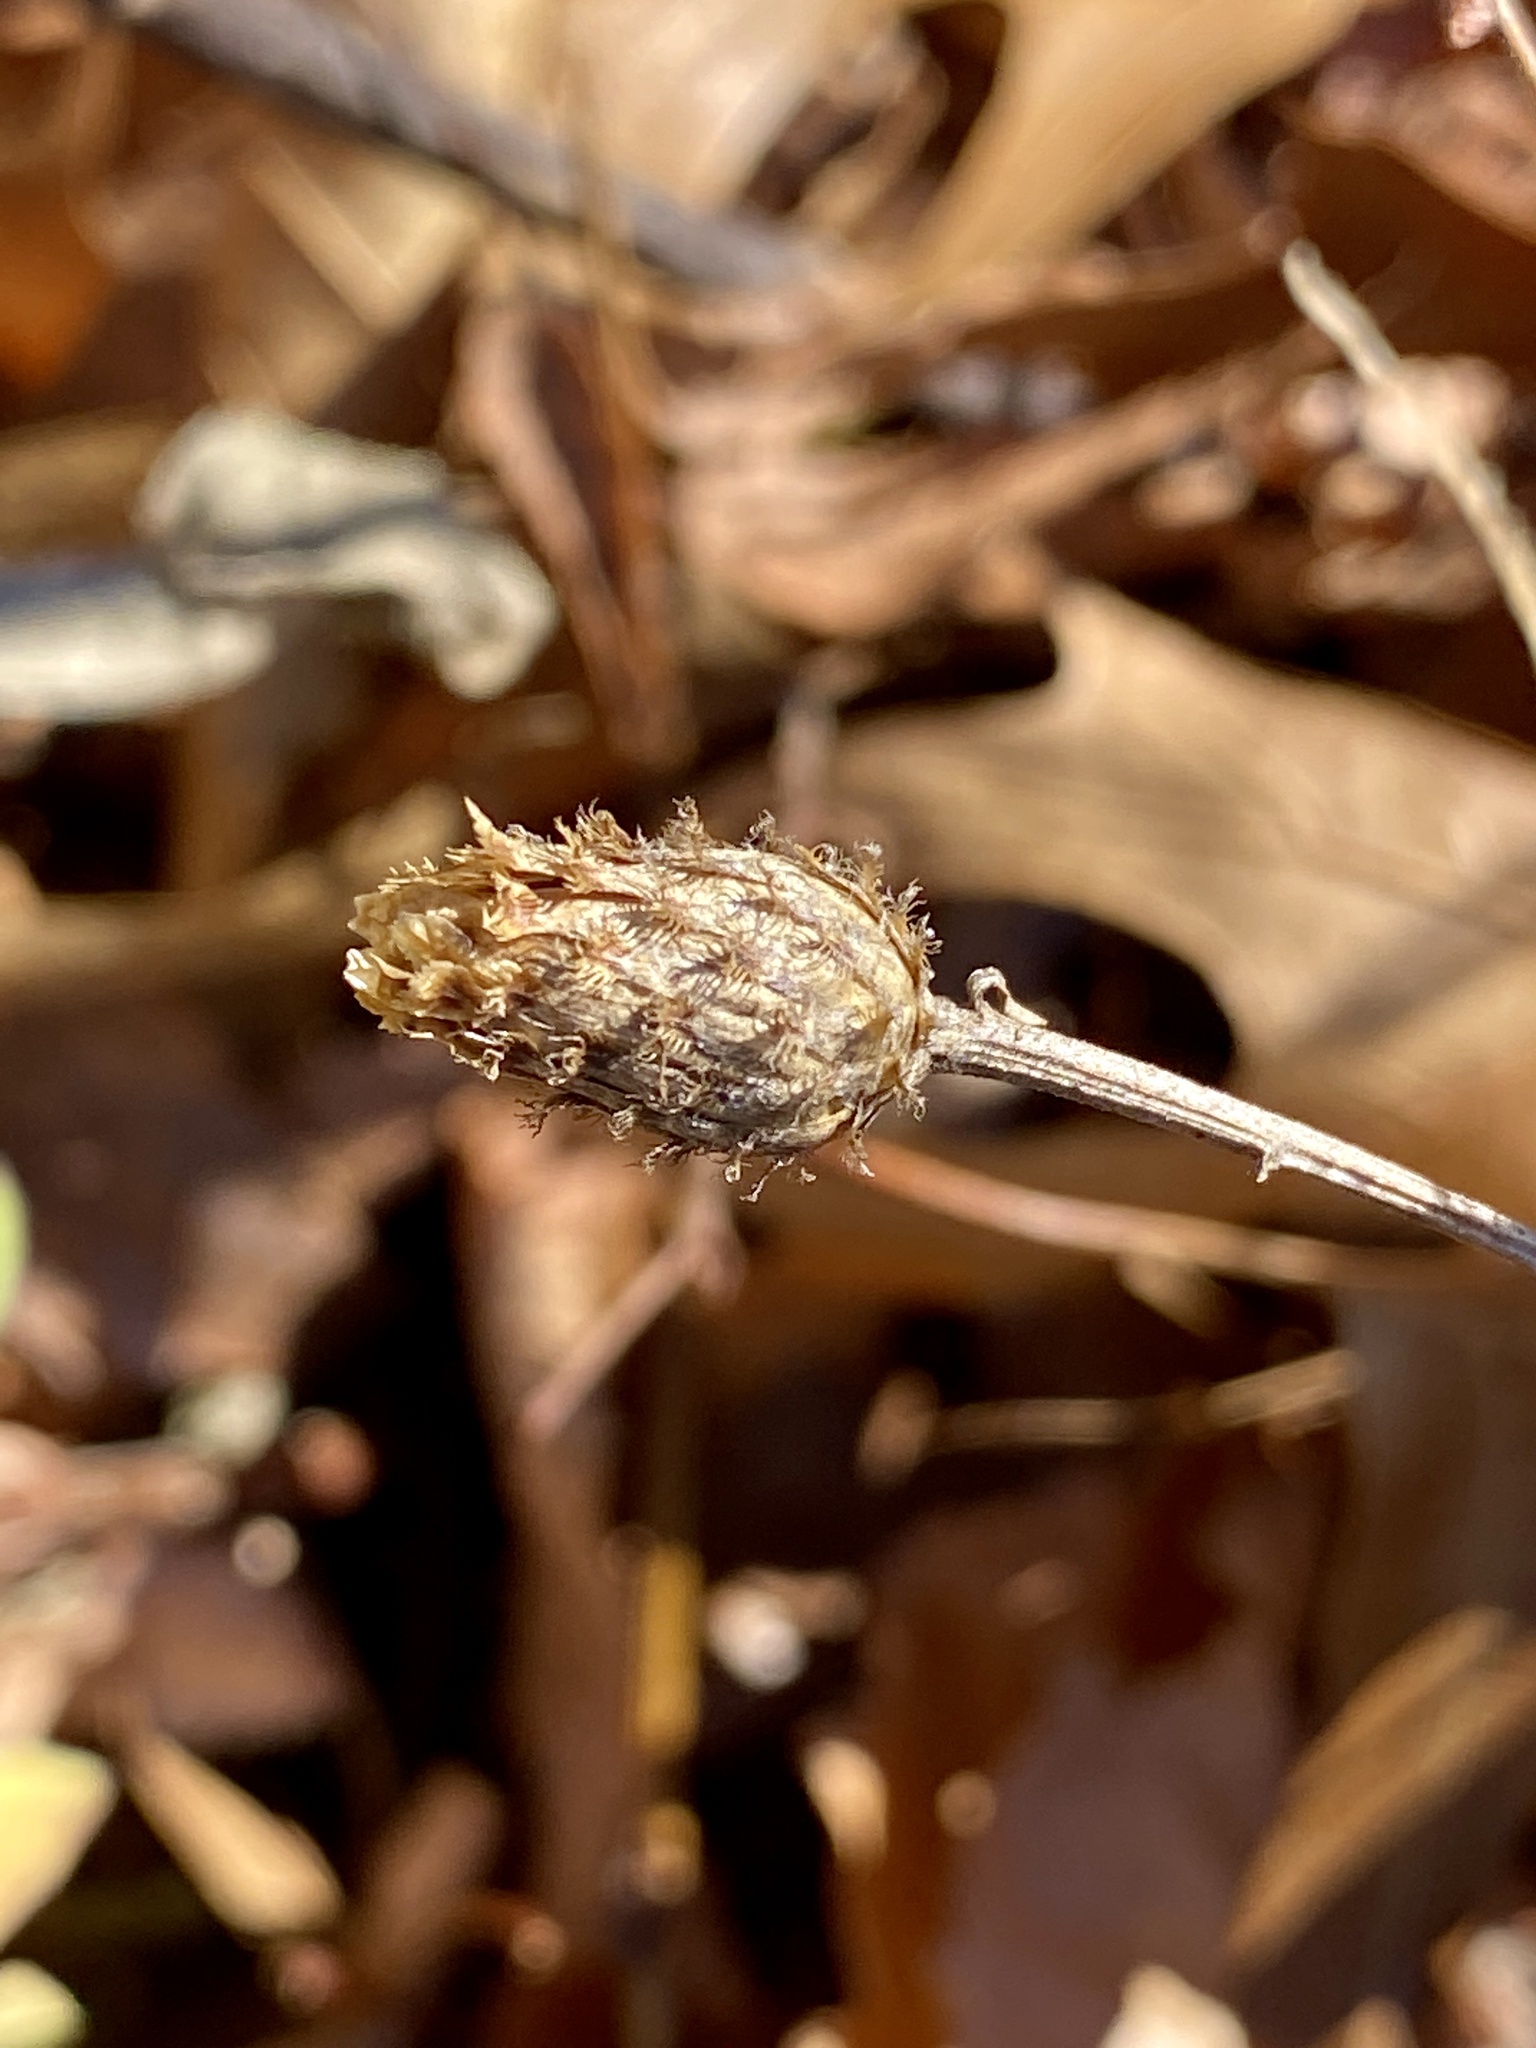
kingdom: Plantae
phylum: Tracheophyta
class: Magnoliopsida
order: Asterales
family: Asteraceae
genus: Centaurea
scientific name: Centaurea nigrescens
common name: Tyrol knapweed
